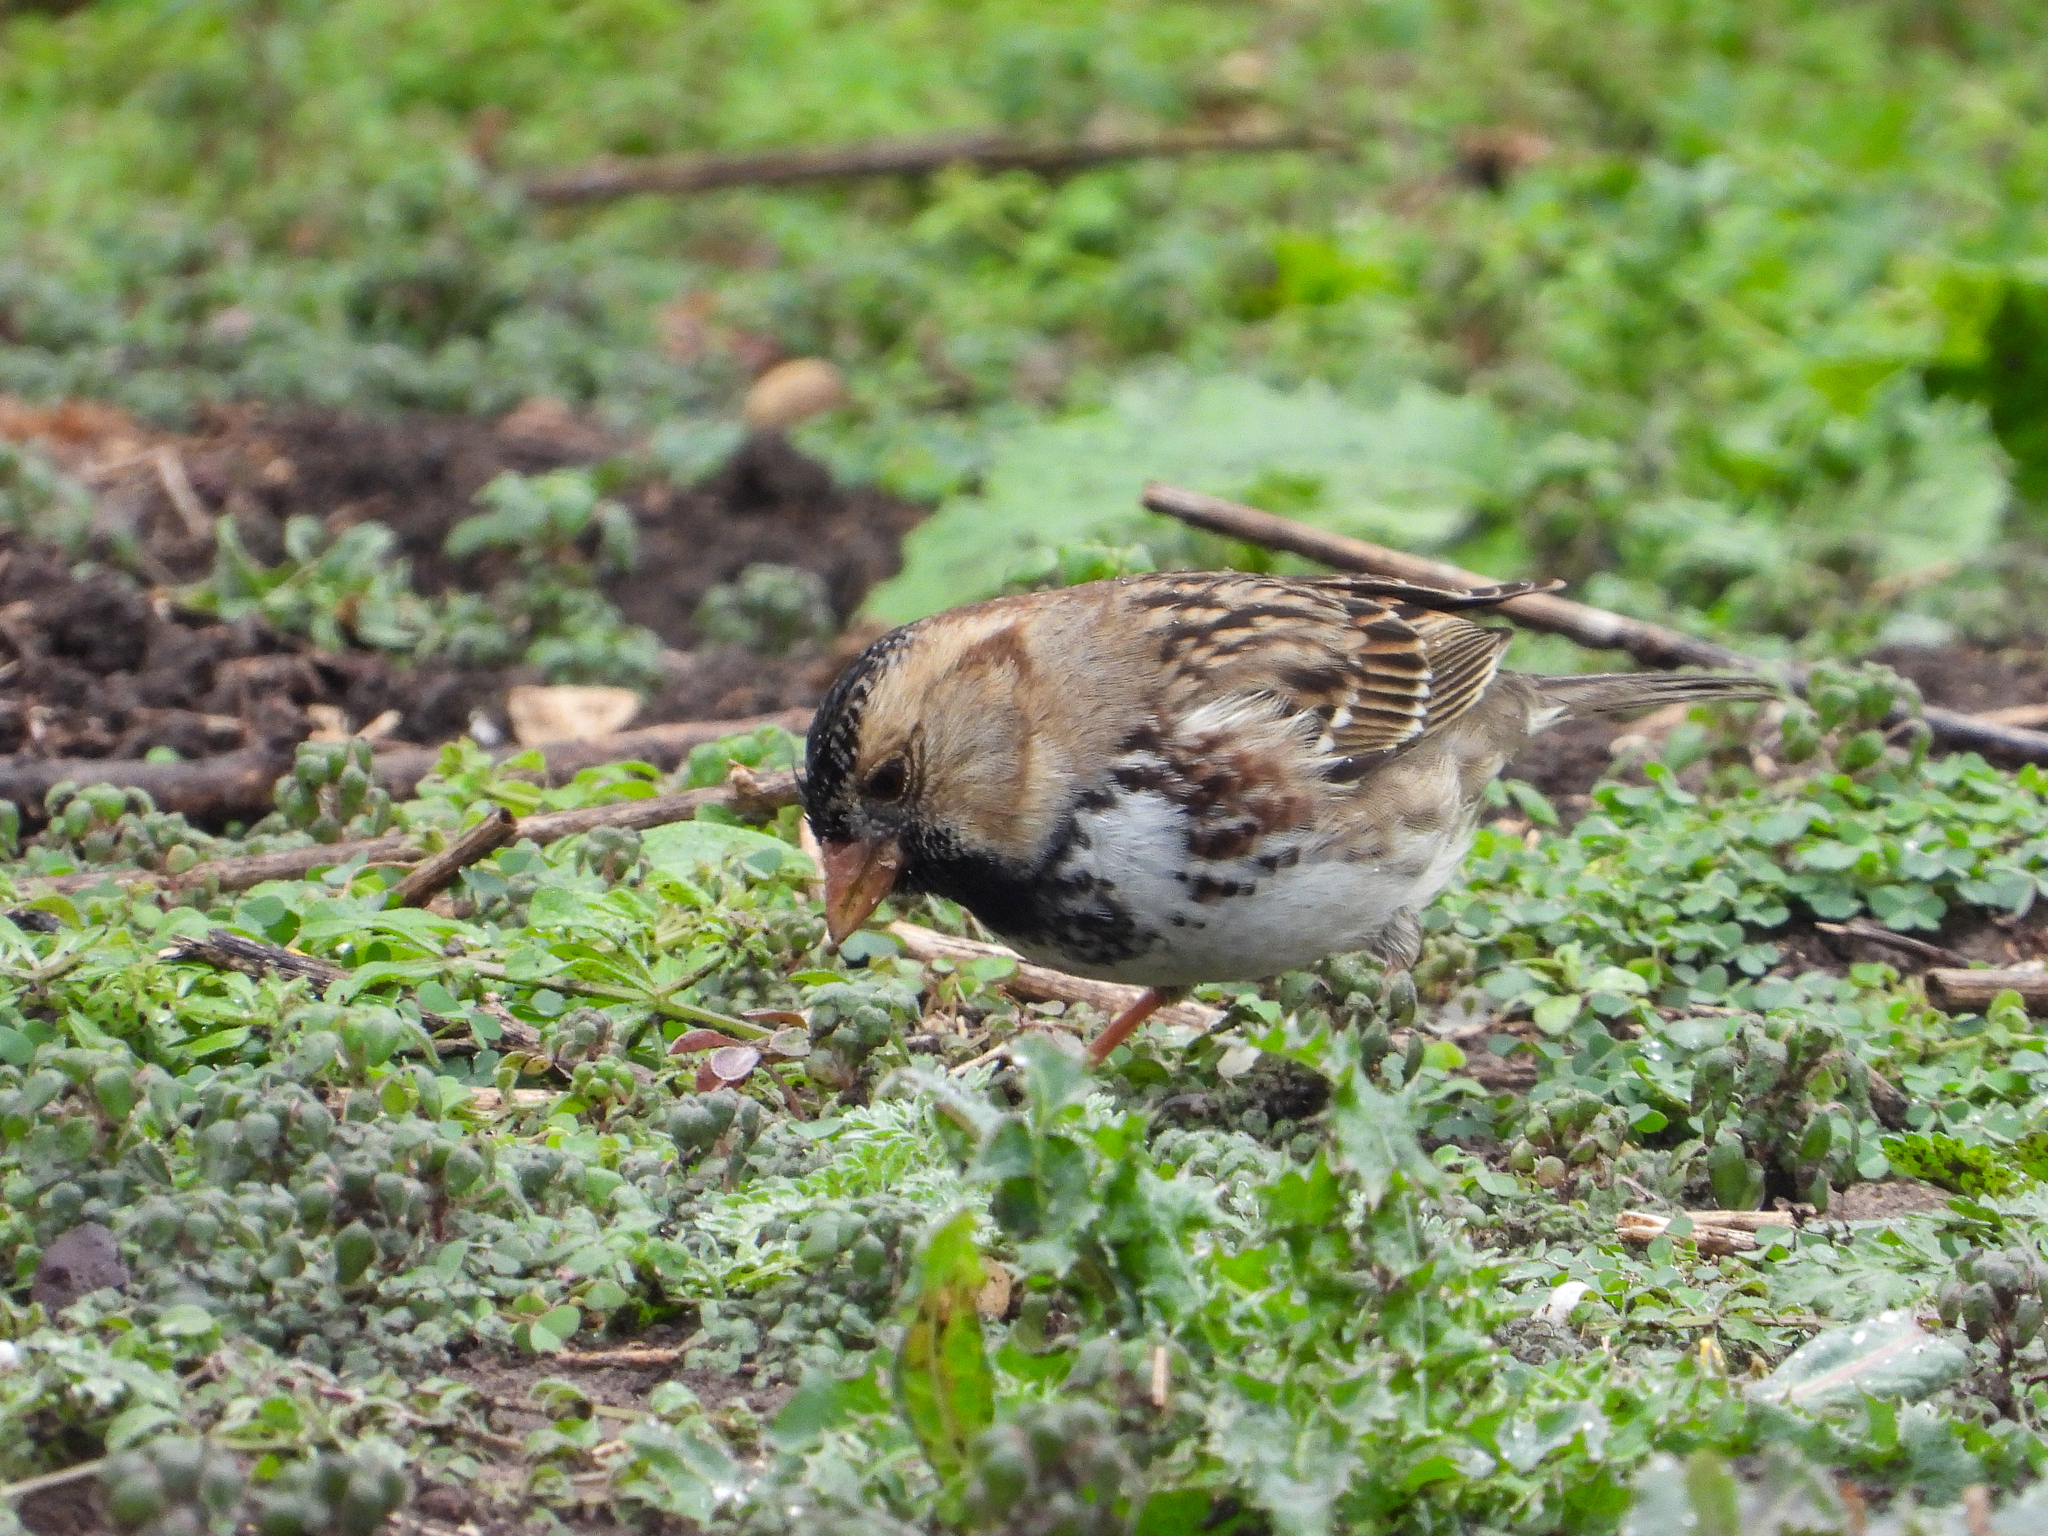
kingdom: Animalia
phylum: Chordata
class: Aves
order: Passeriformes
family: Passerellidae
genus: Zonotrichia
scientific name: Zonotrichia querula
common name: Harris's sparrow
